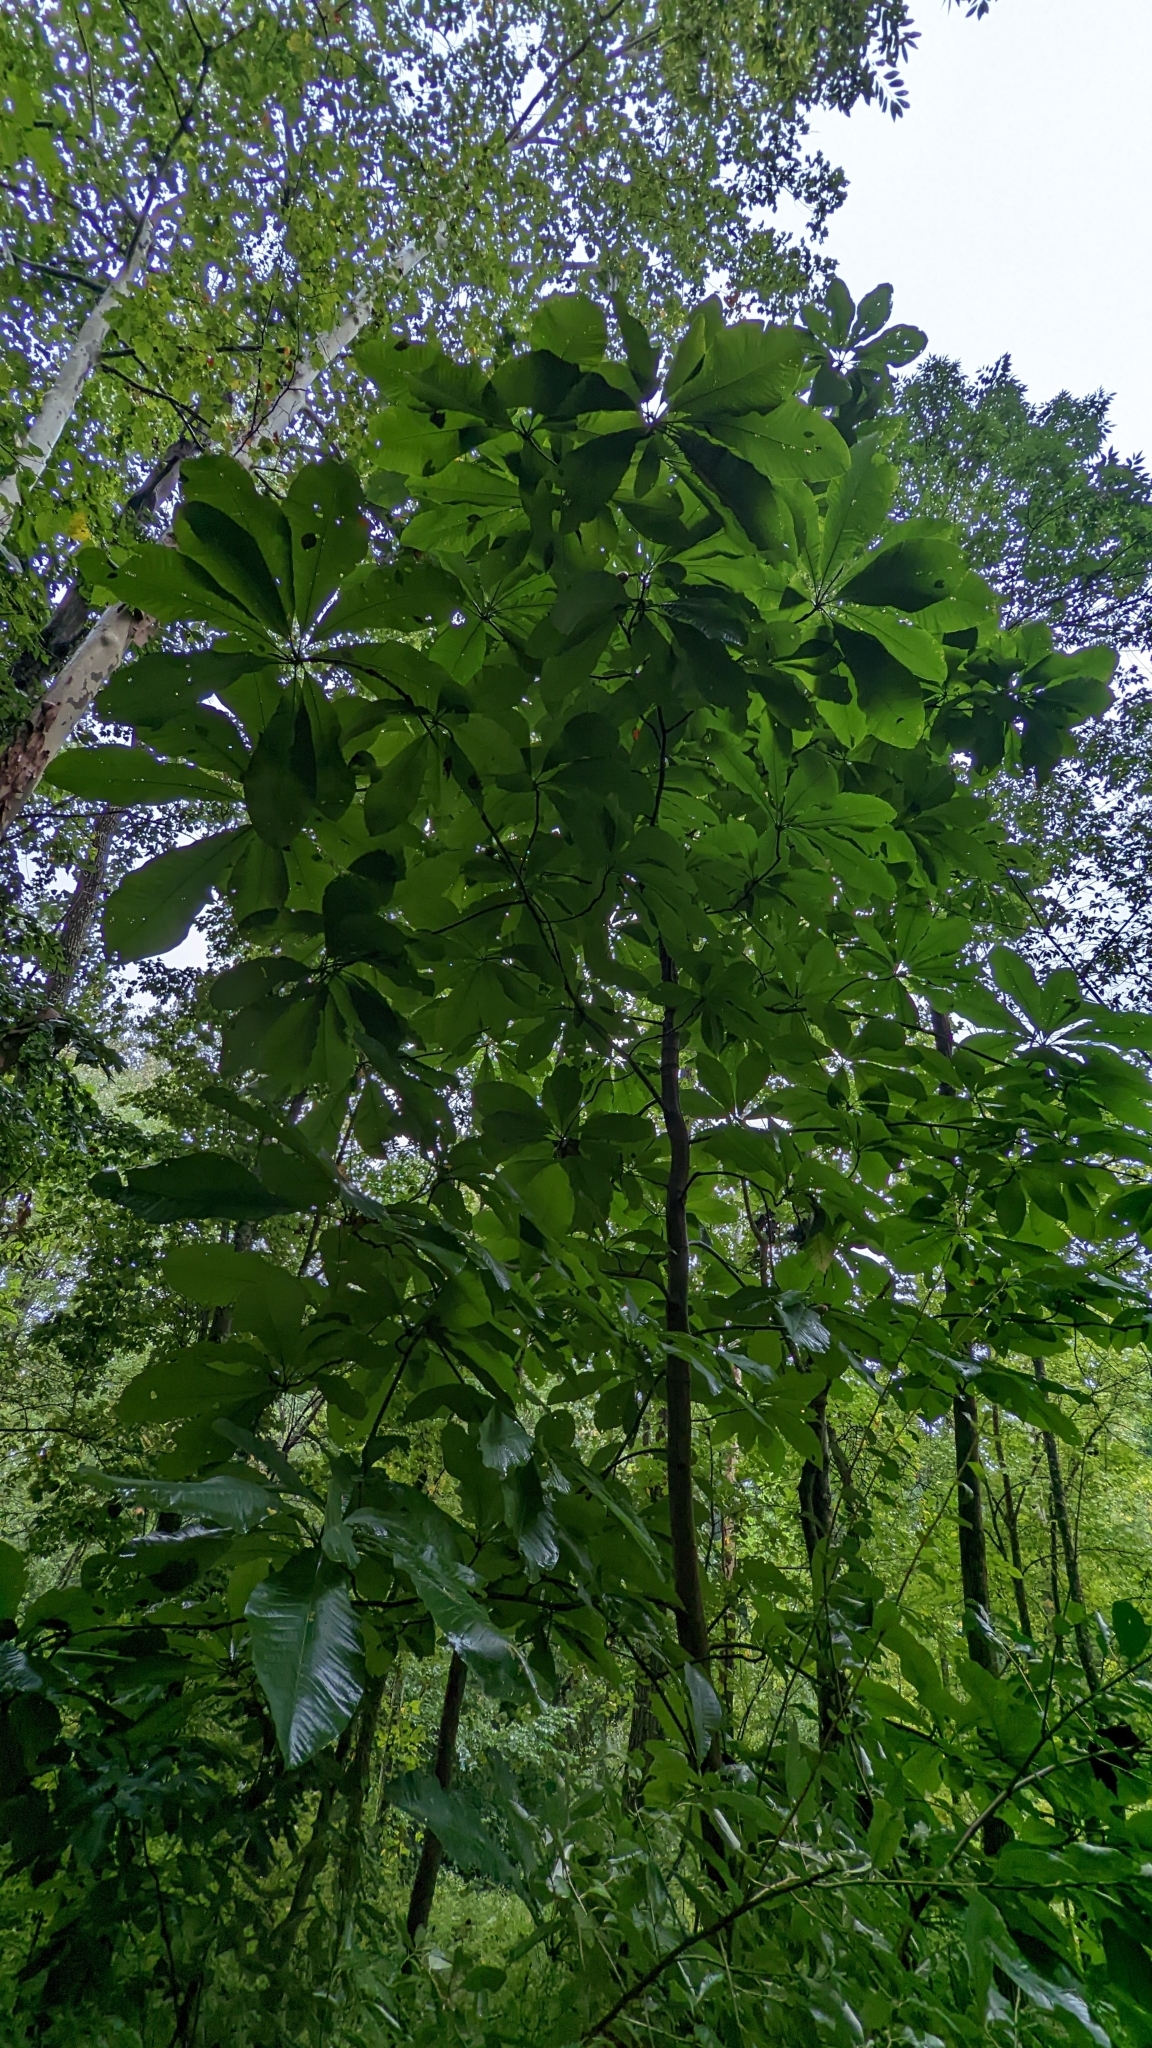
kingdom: Plantae
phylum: Tracheophyta
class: Magnoliopsida
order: Magnoliales
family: Annonaceae
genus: Asimina
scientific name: Asimina triloba
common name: Dog-banana
